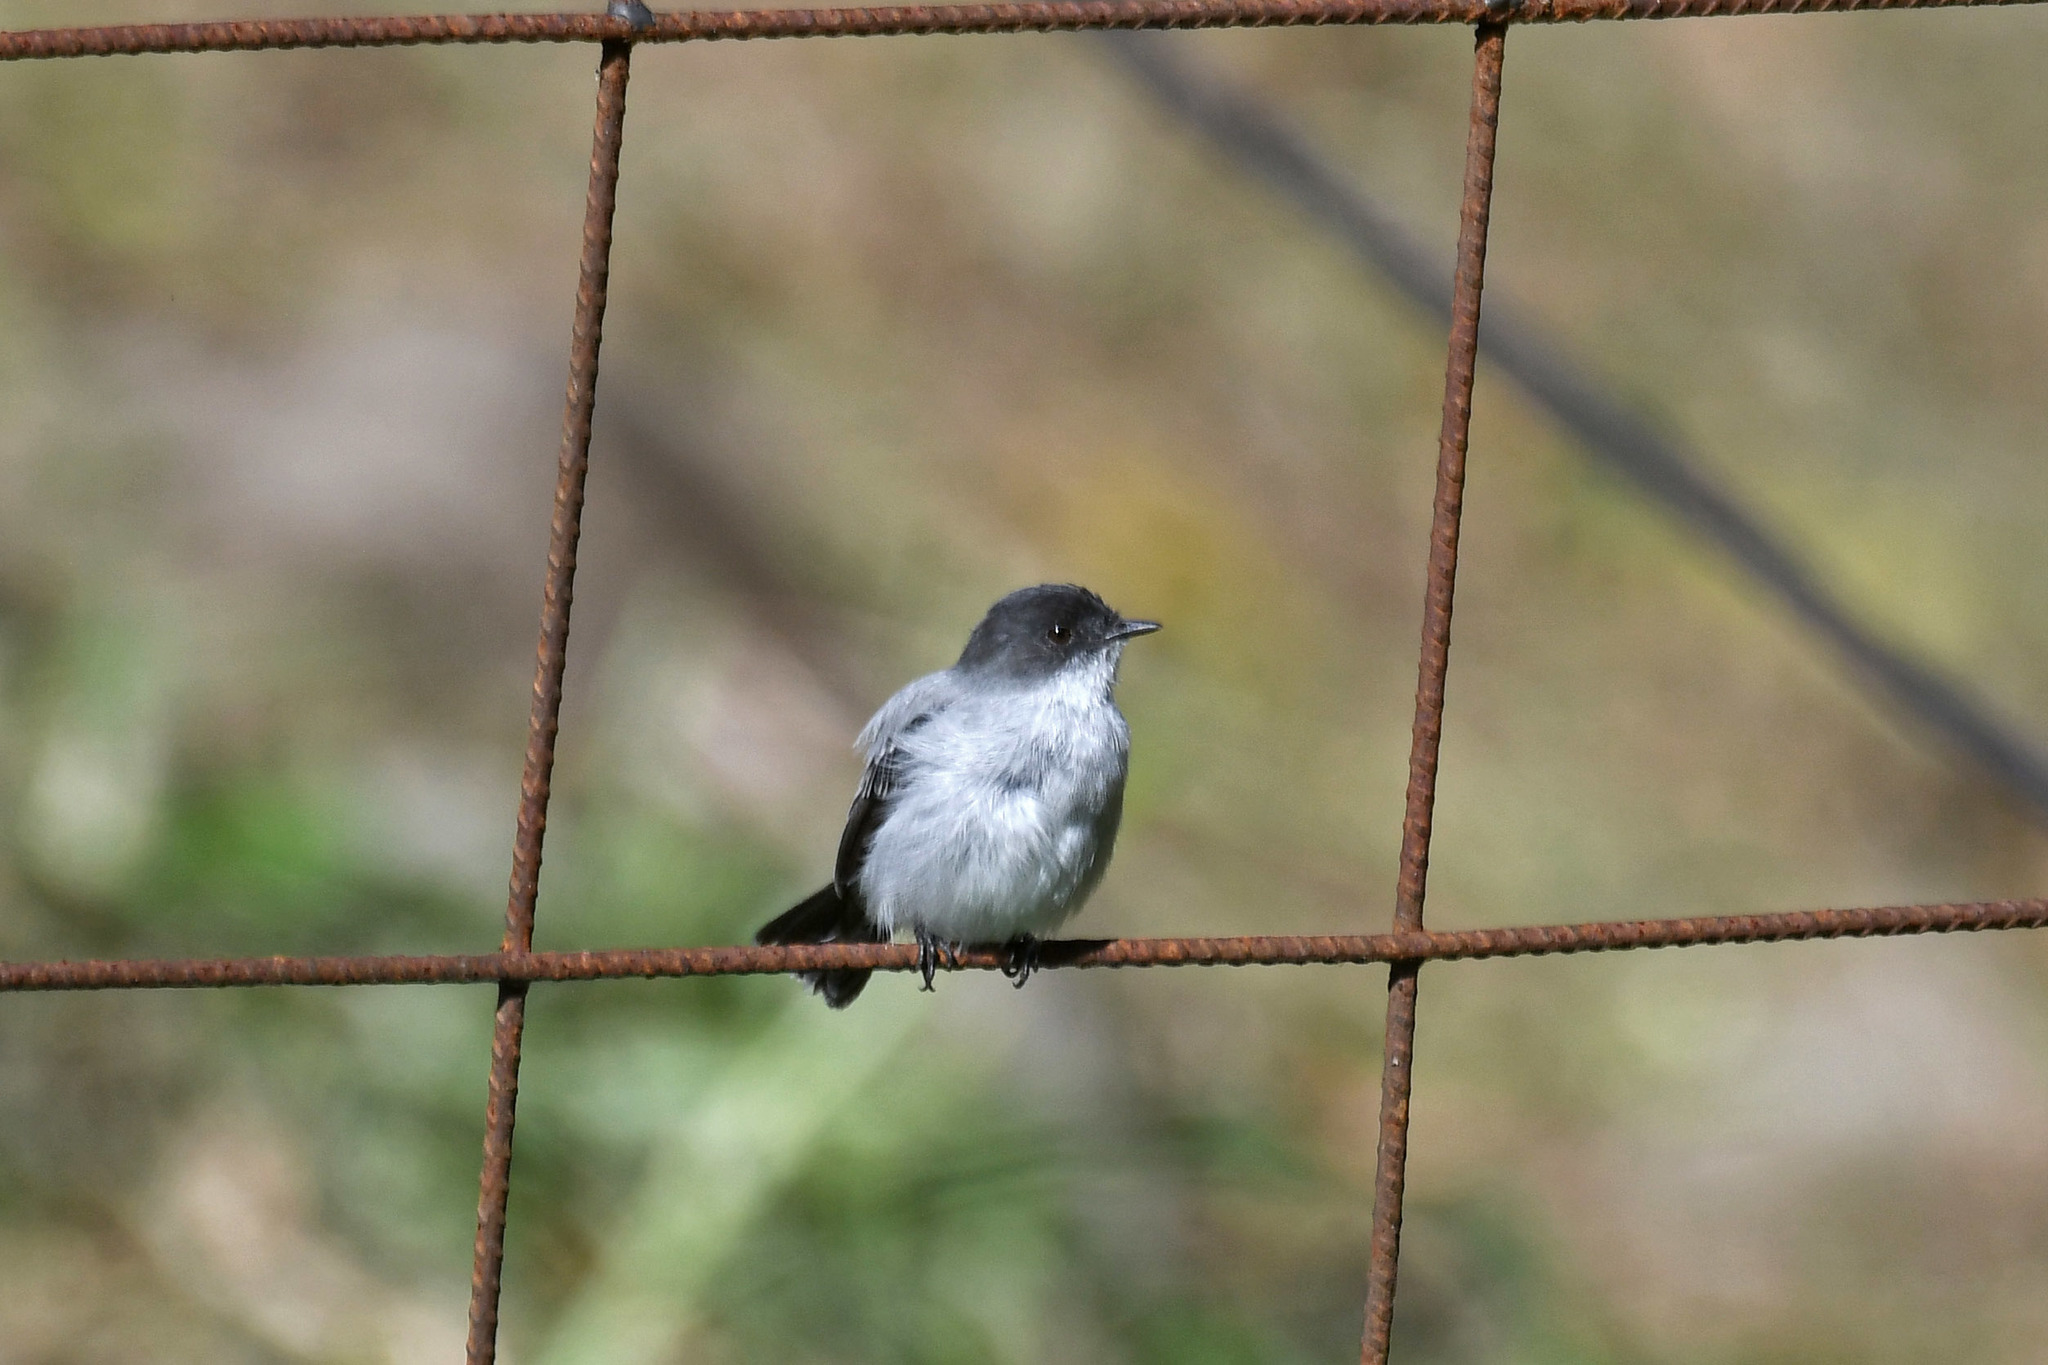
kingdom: Animalia
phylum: Chordata
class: Aves
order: Passeriformes
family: Tyrannidae
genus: Serpophaga
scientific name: Serpophaga cinerea
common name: Torrent tyrannulet
